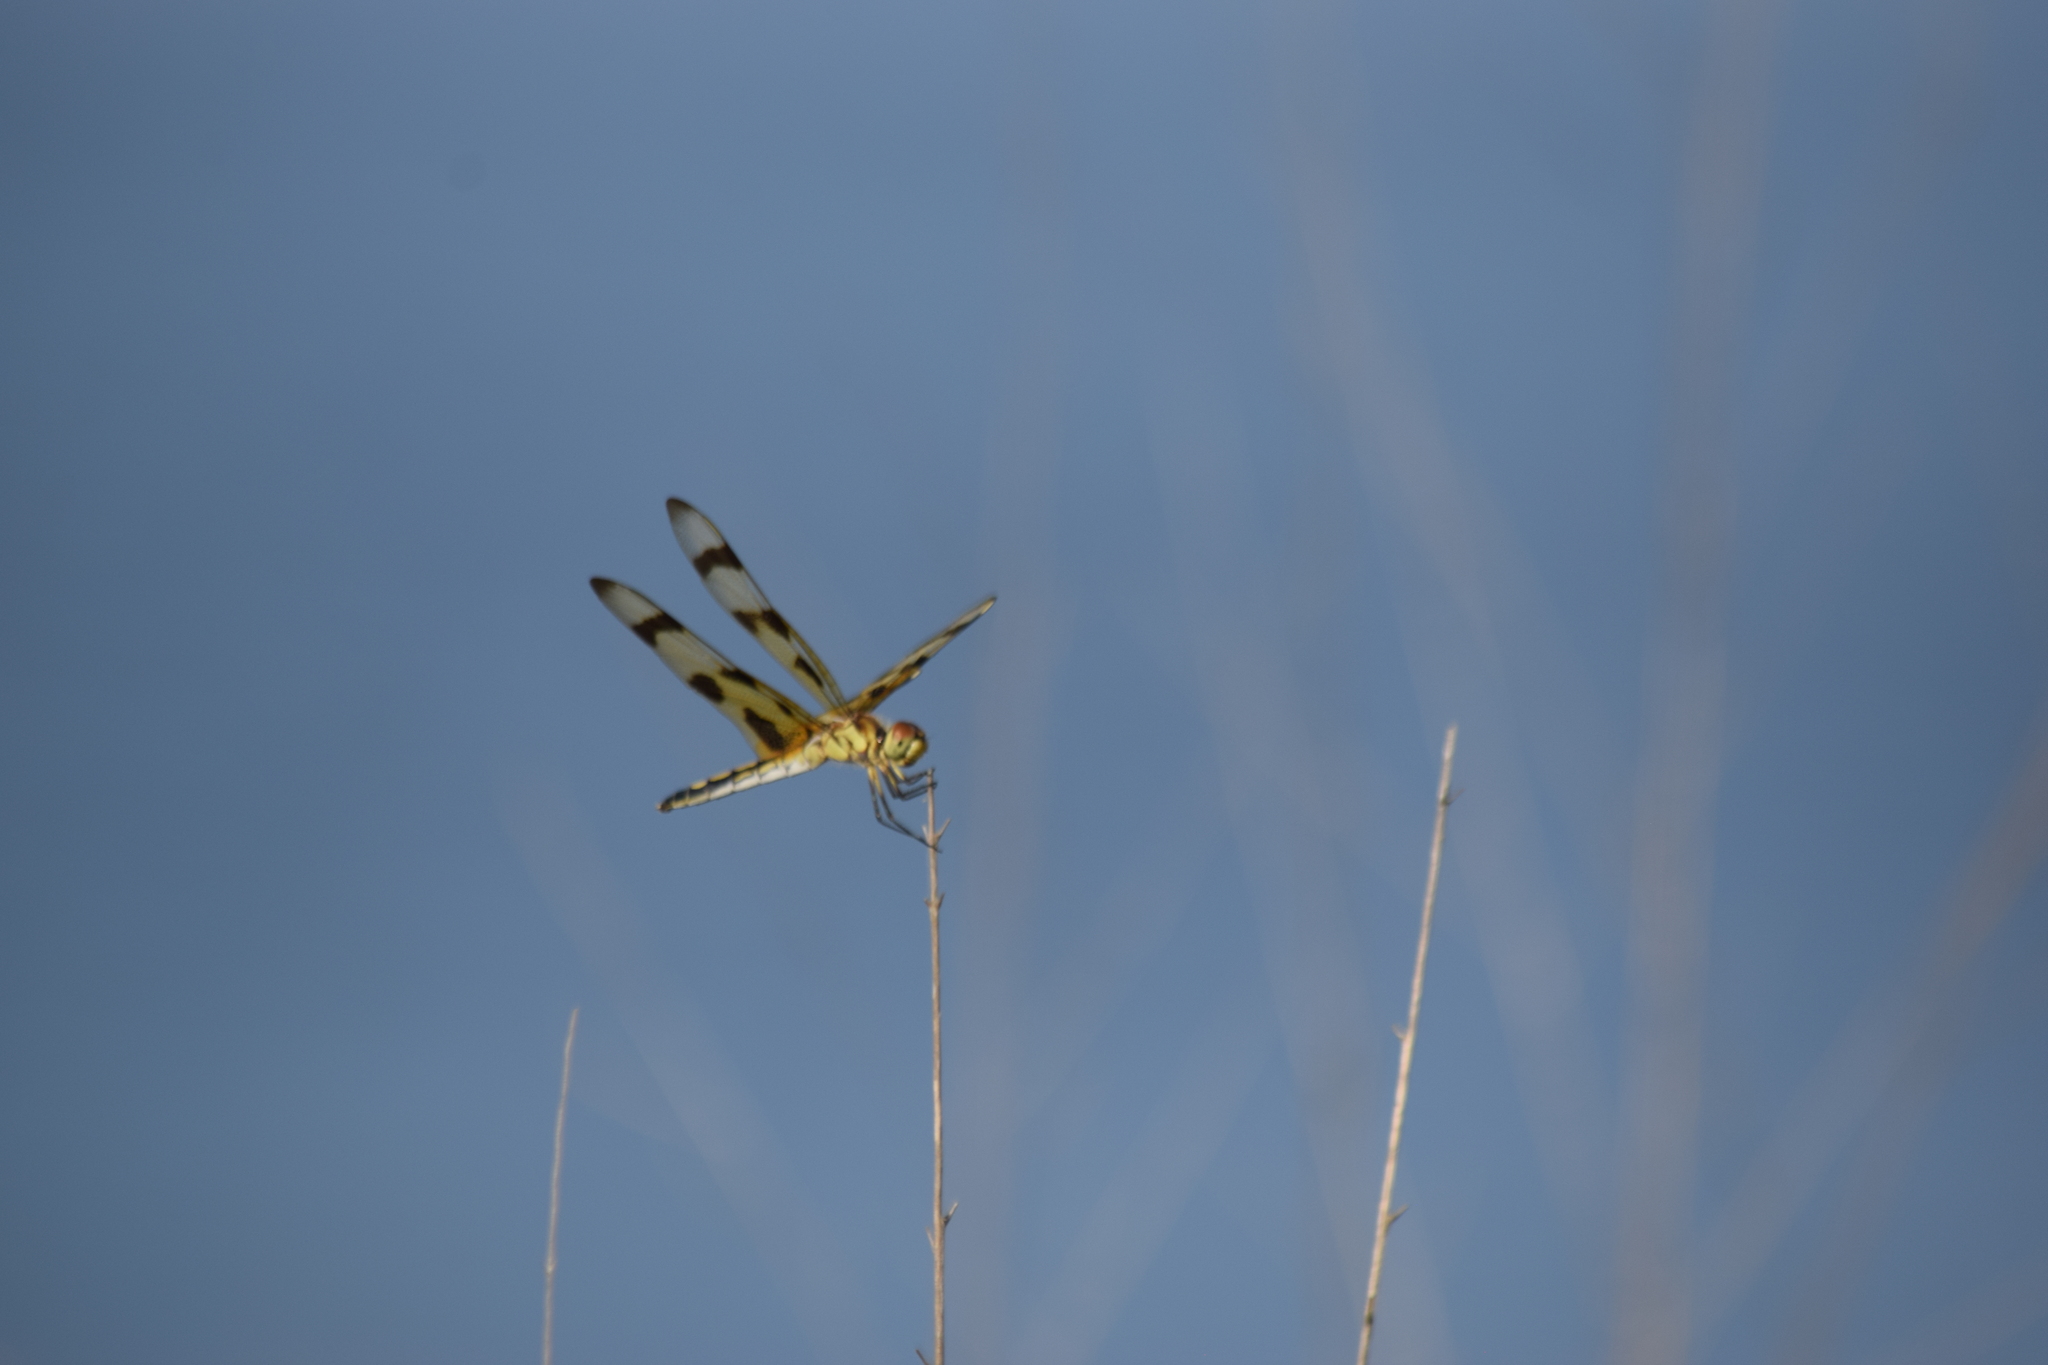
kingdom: Animalia
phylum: Arthropoda
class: Insecta
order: Odonata
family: Libellulidae
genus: Celithemis
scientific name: Celithemis eponina
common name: Halloween pennant
